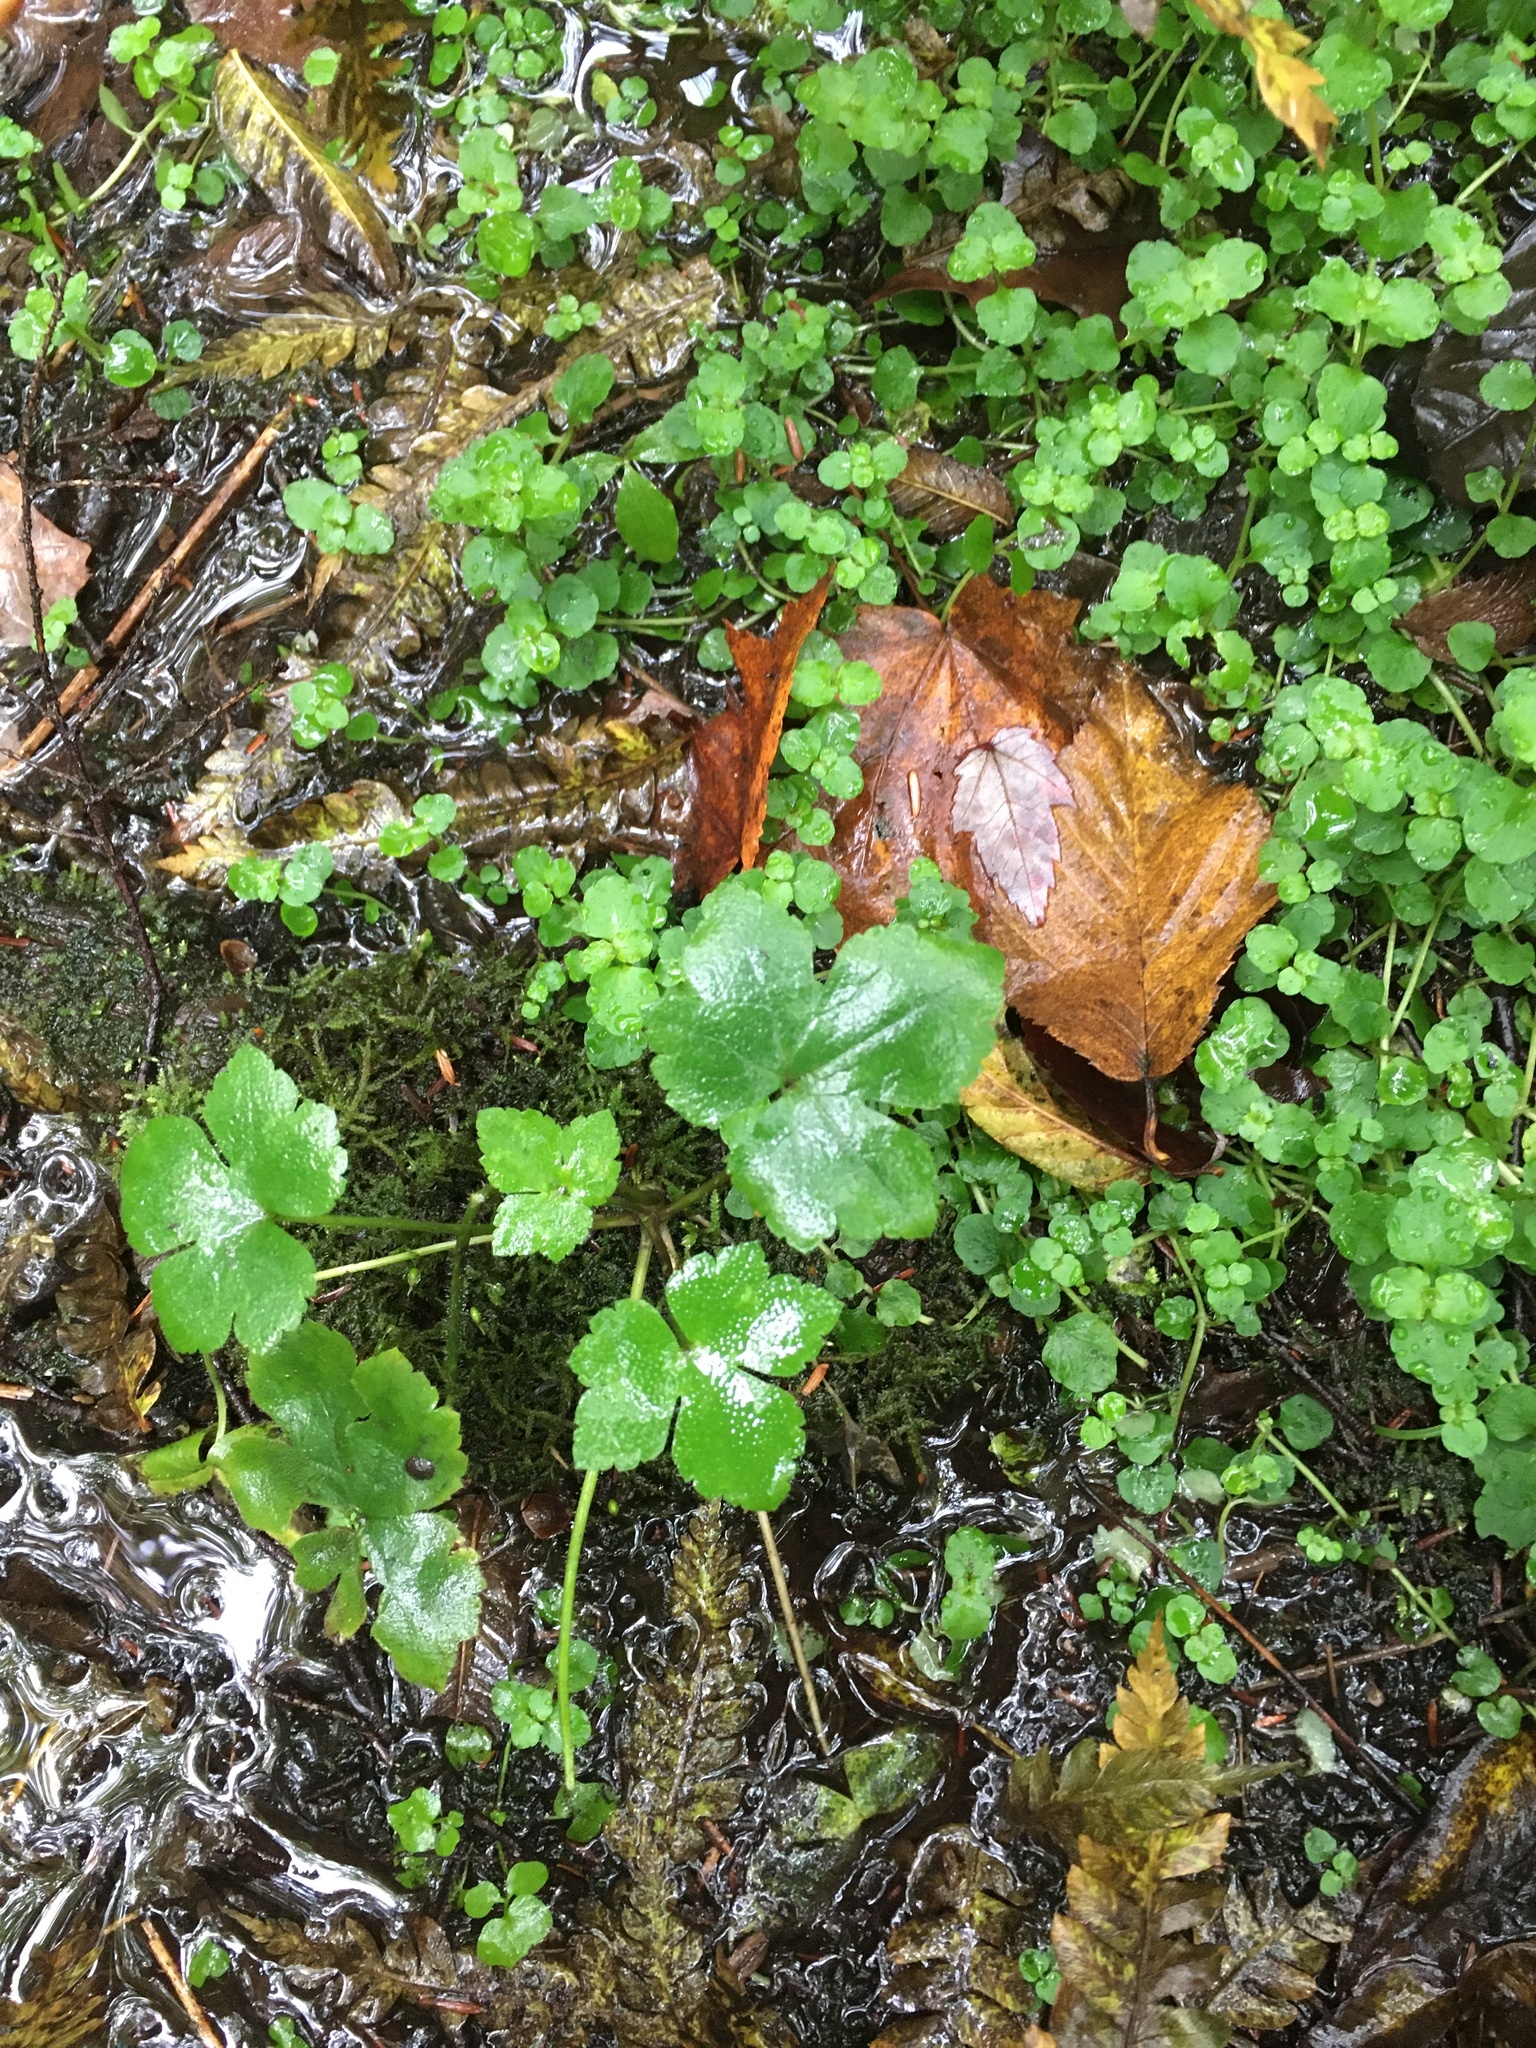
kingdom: Plantae
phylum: Tracheophyta
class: Magnoliopsida
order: Ranunculales
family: Ranunculaceae
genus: Ranunculus
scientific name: Ranunculus recurvatus
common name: Blisterwort
